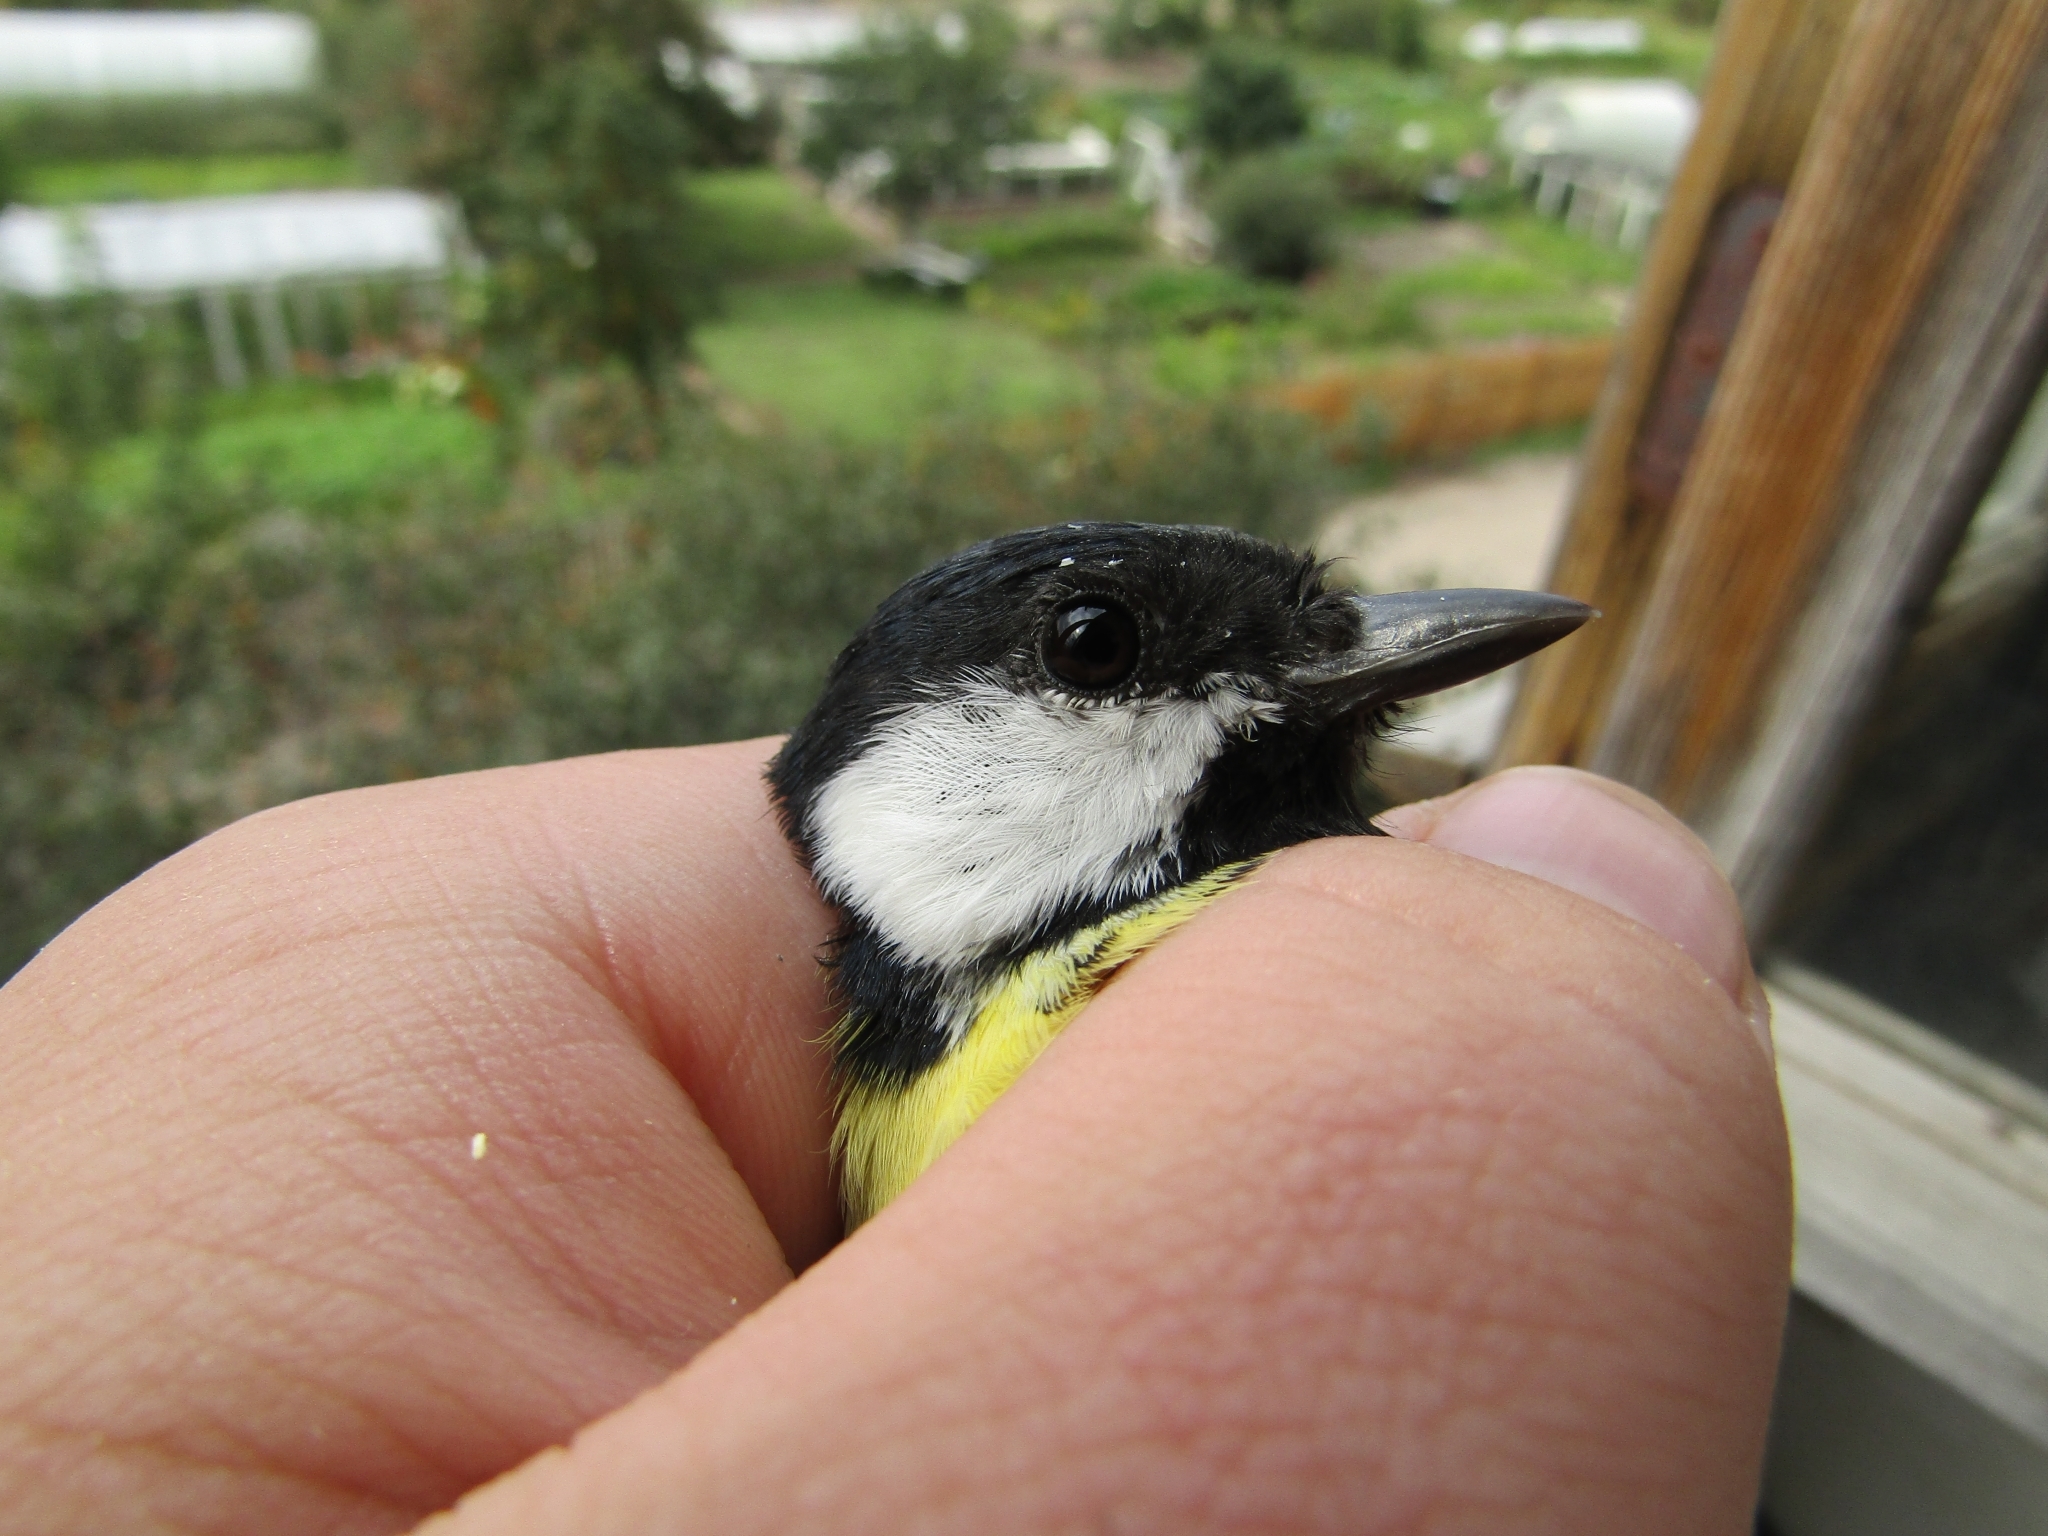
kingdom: Animalia
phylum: Chordata
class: Aves
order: Passeriformes
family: Paridae
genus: Parus
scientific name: Parus major
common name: Great tit
